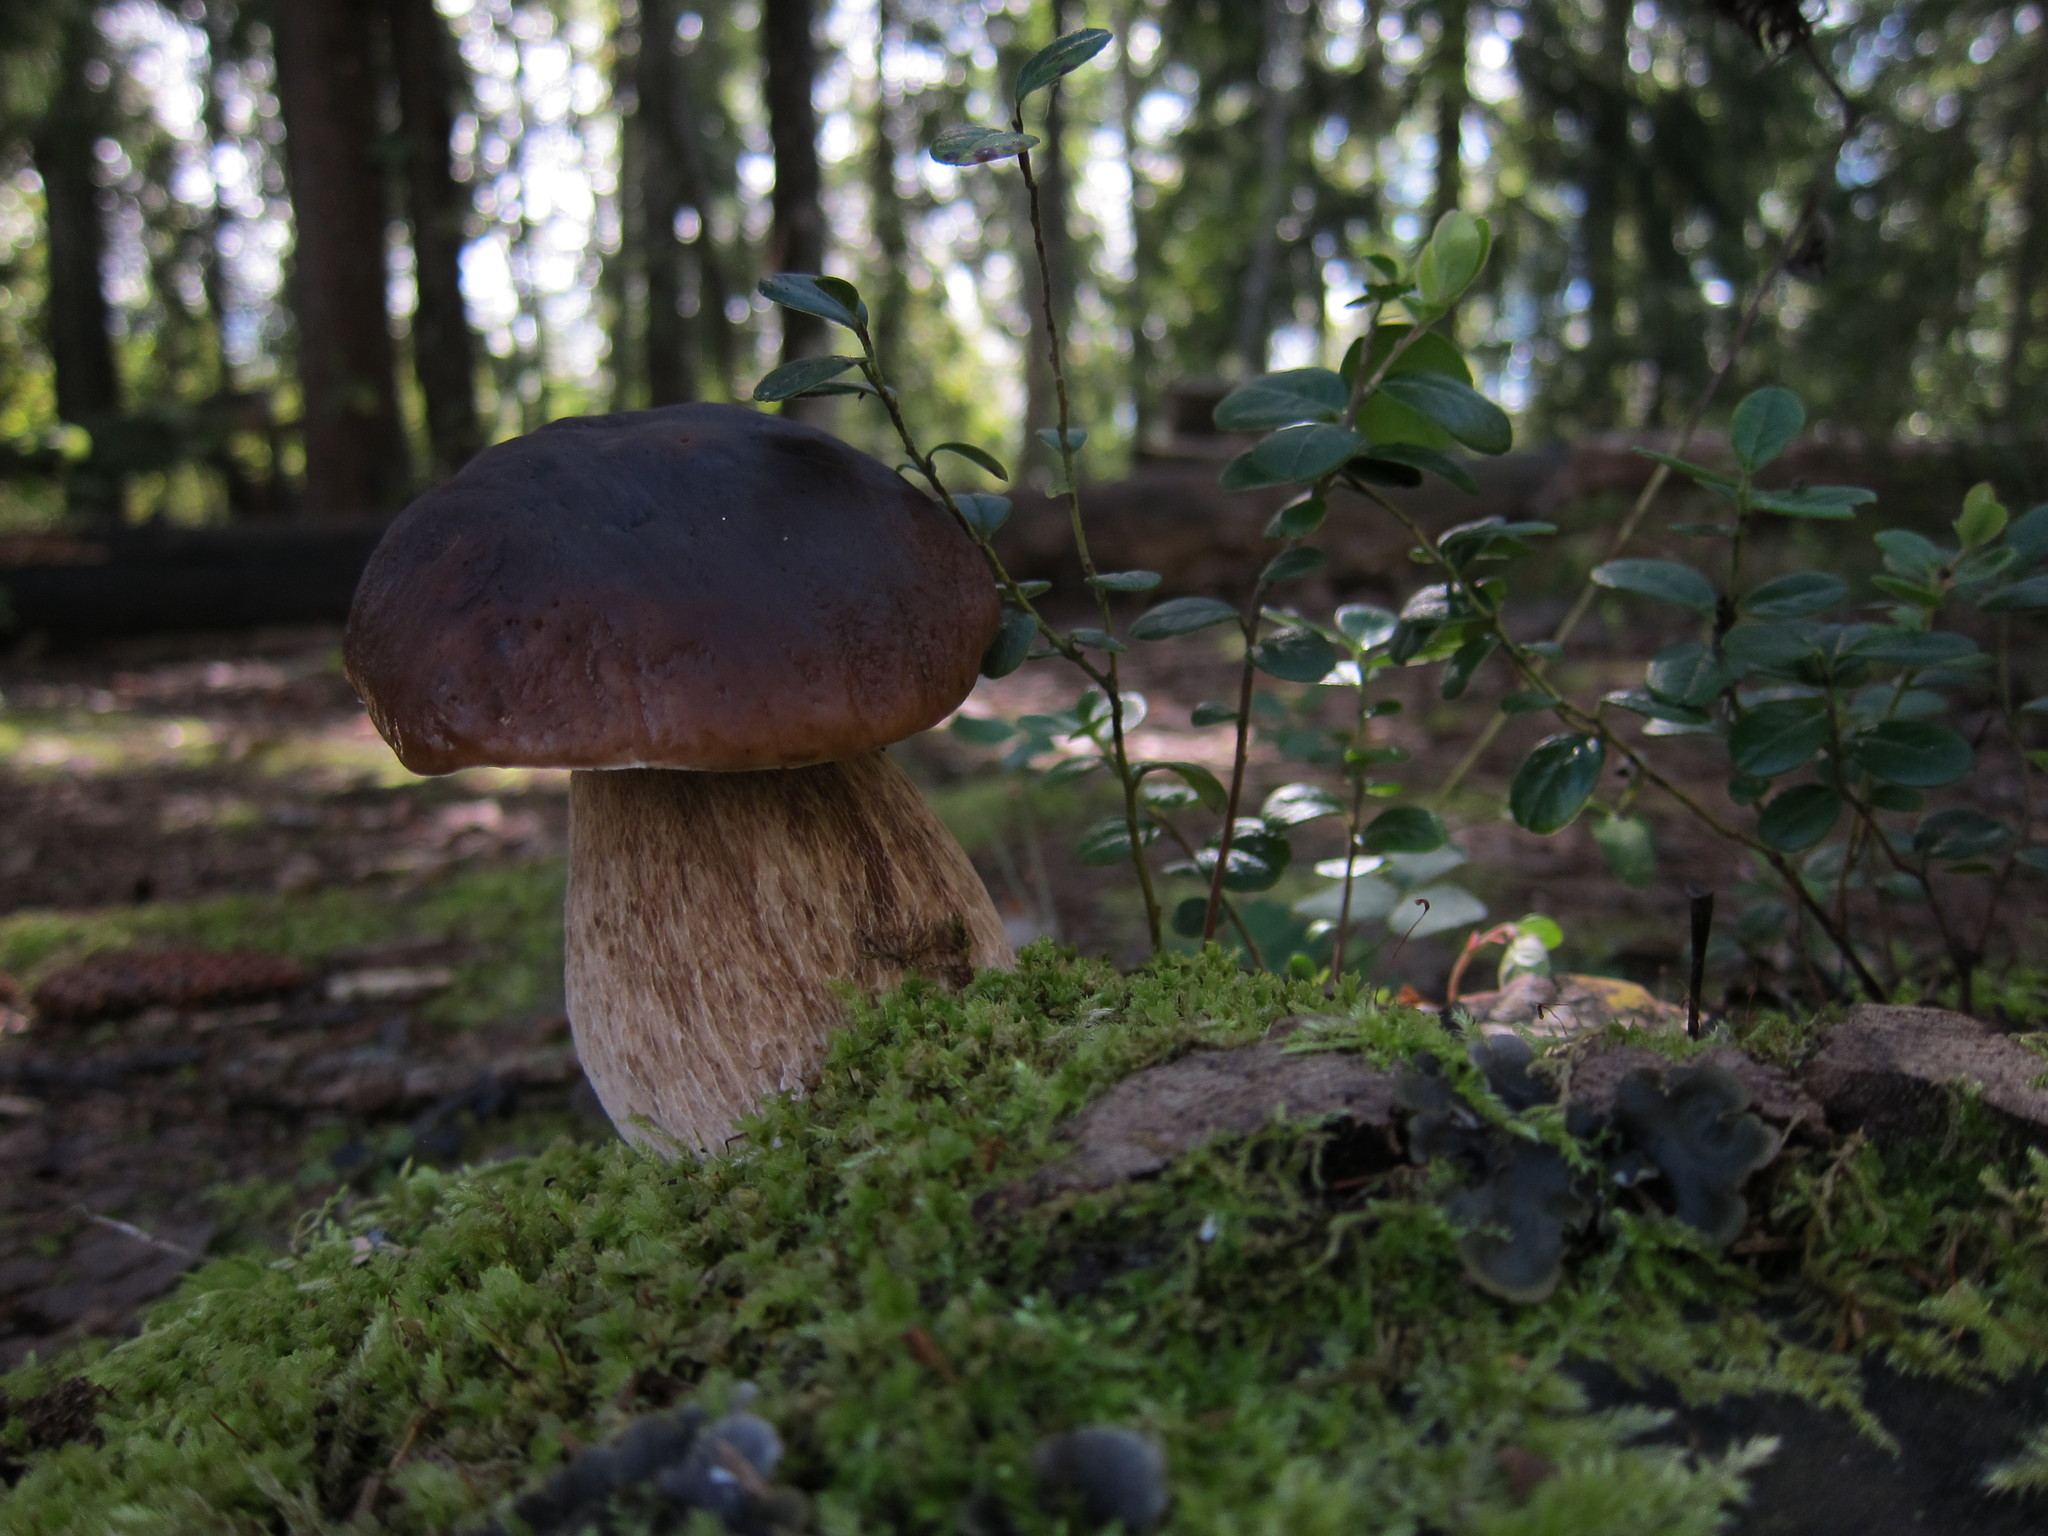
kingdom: Fungi
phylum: Basidiomycota
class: Agaricomycetes
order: Boletales
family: Boletaceae
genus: Boletus
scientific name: Boletus edulis
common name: Cep
